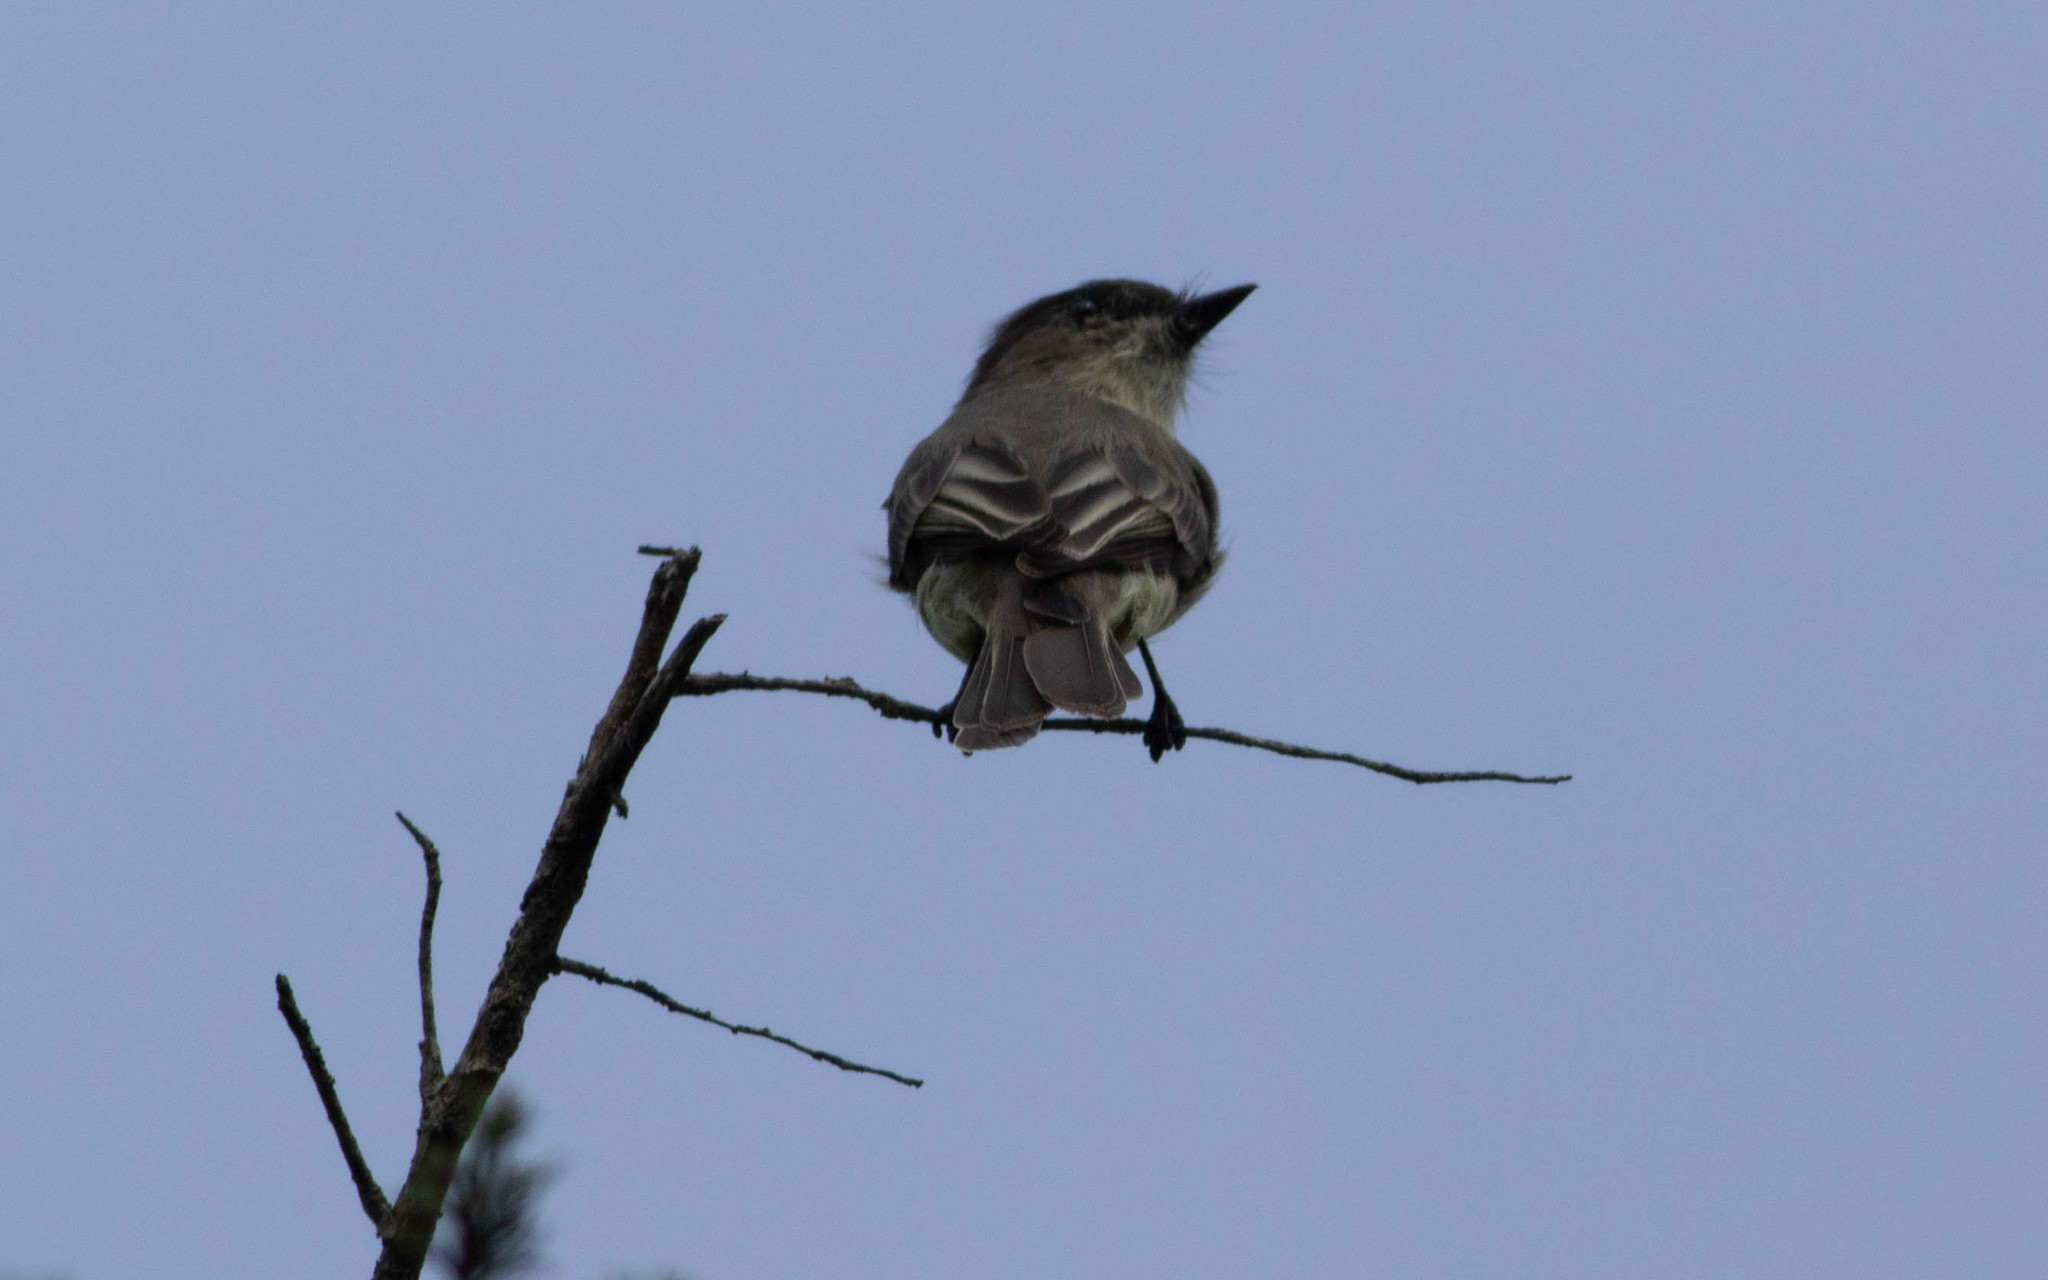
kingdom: Animalia
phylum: Chordata
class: Aves
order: Passeriformes
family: Tyrannidae
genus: Sayornis
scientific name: Sayornis phoebe
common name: Eastern phoebe
